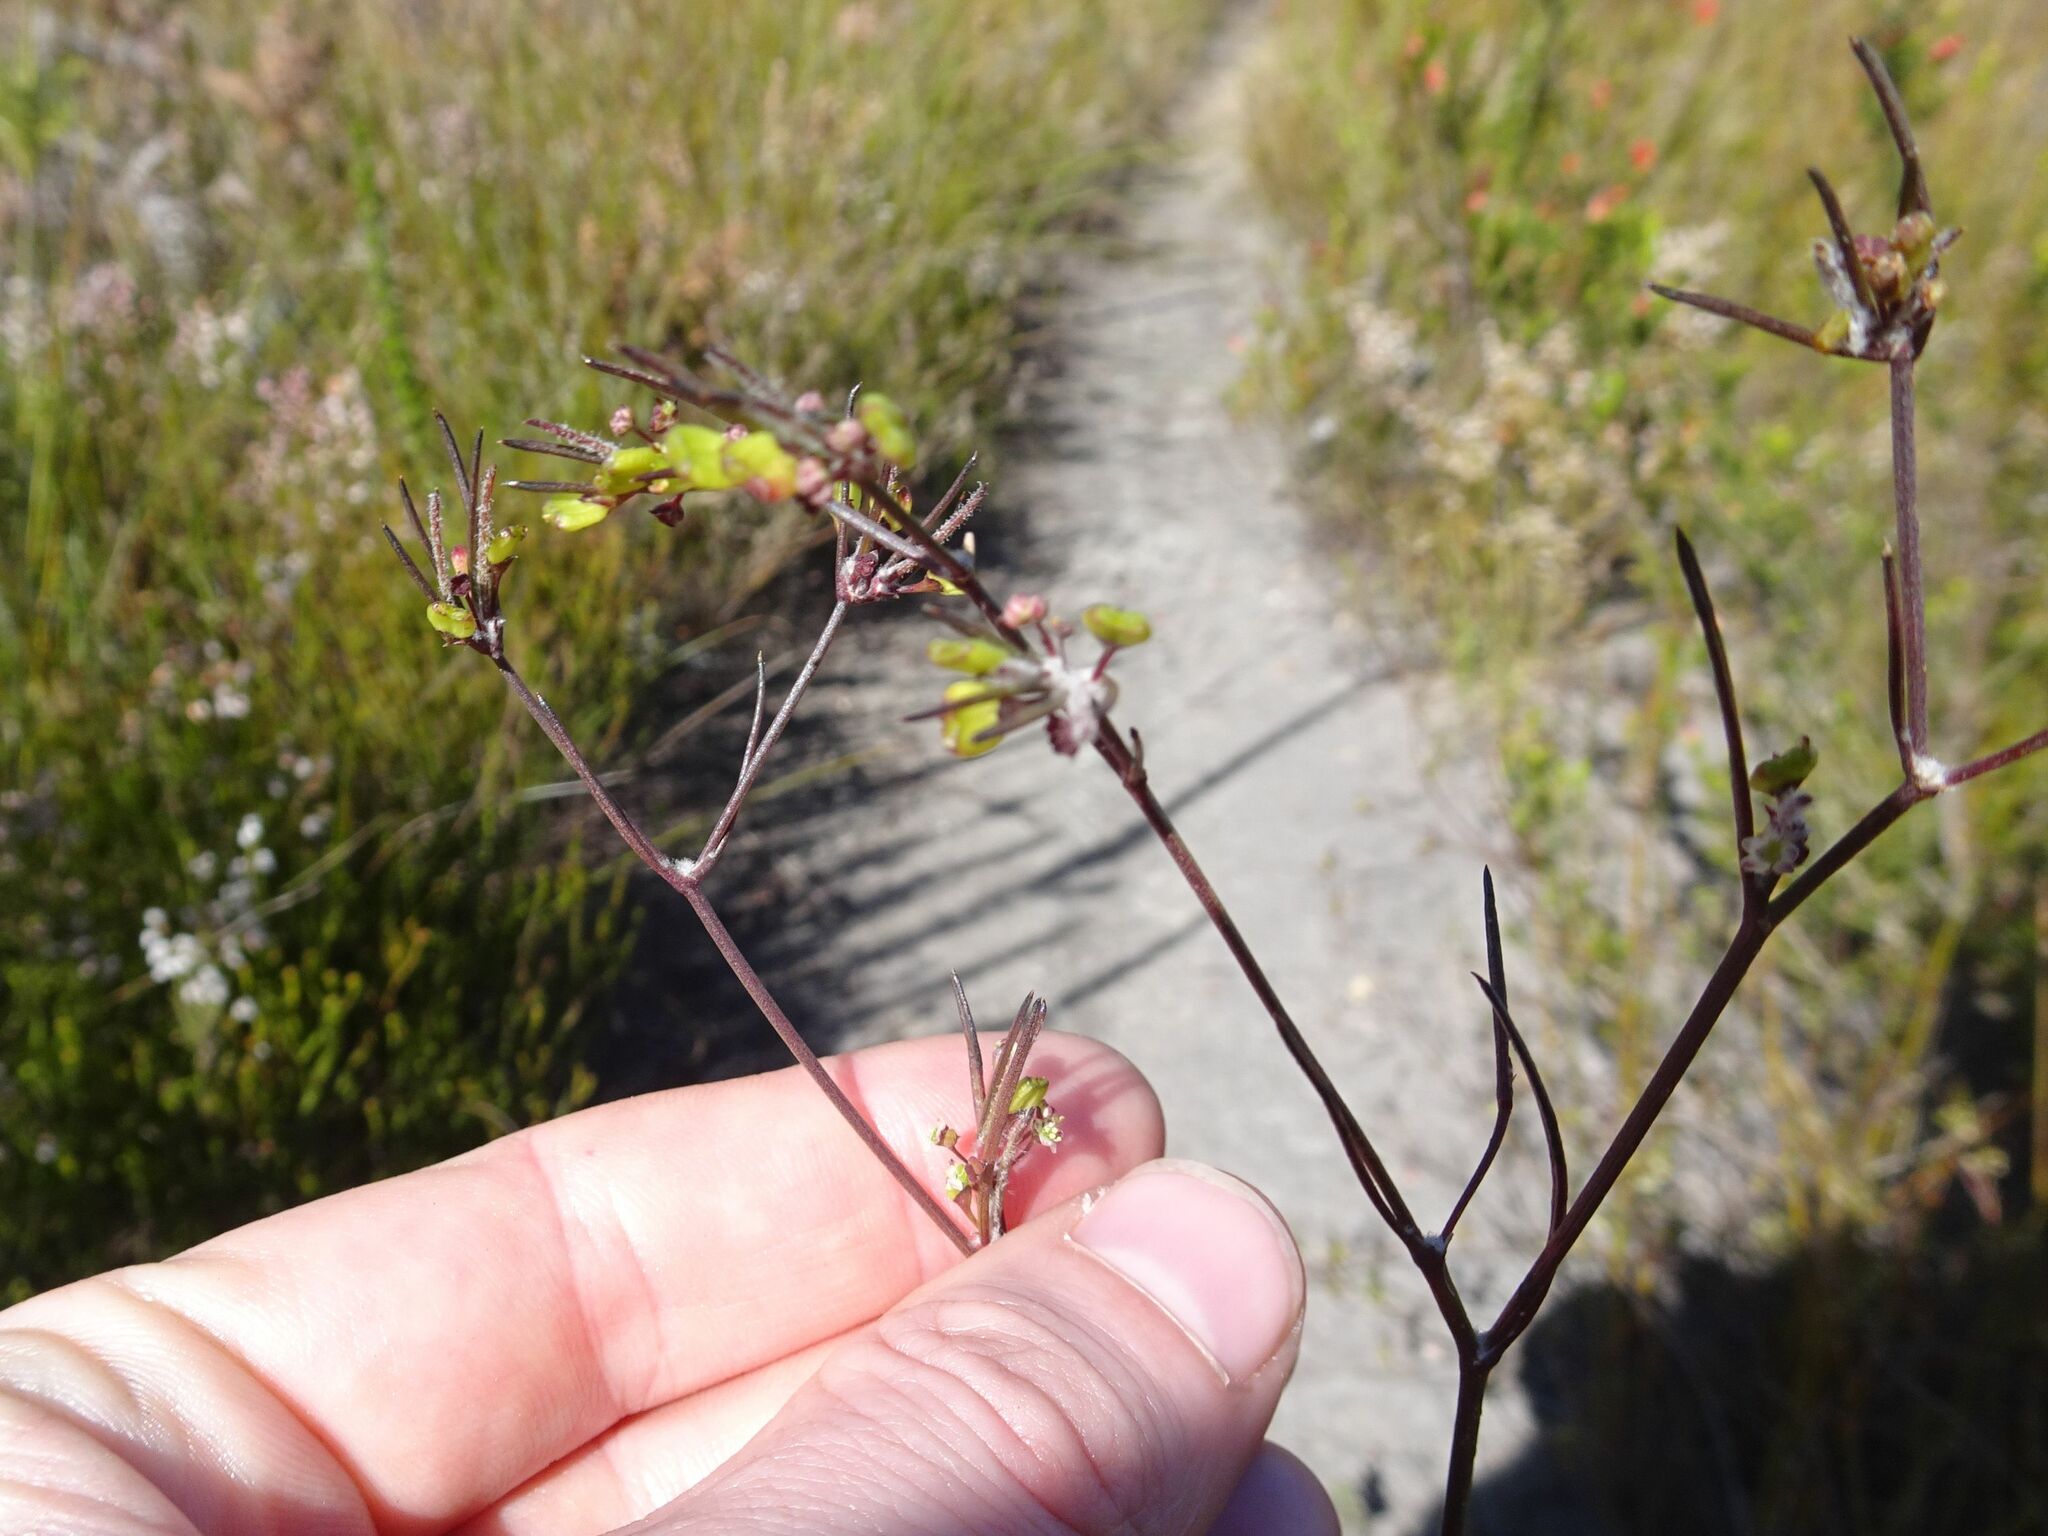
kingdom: Plantae
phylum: Tracheophyta
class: Magnoliopsida
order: Apiales
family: Apiaceae
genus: Centella
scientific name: Centella virgata
